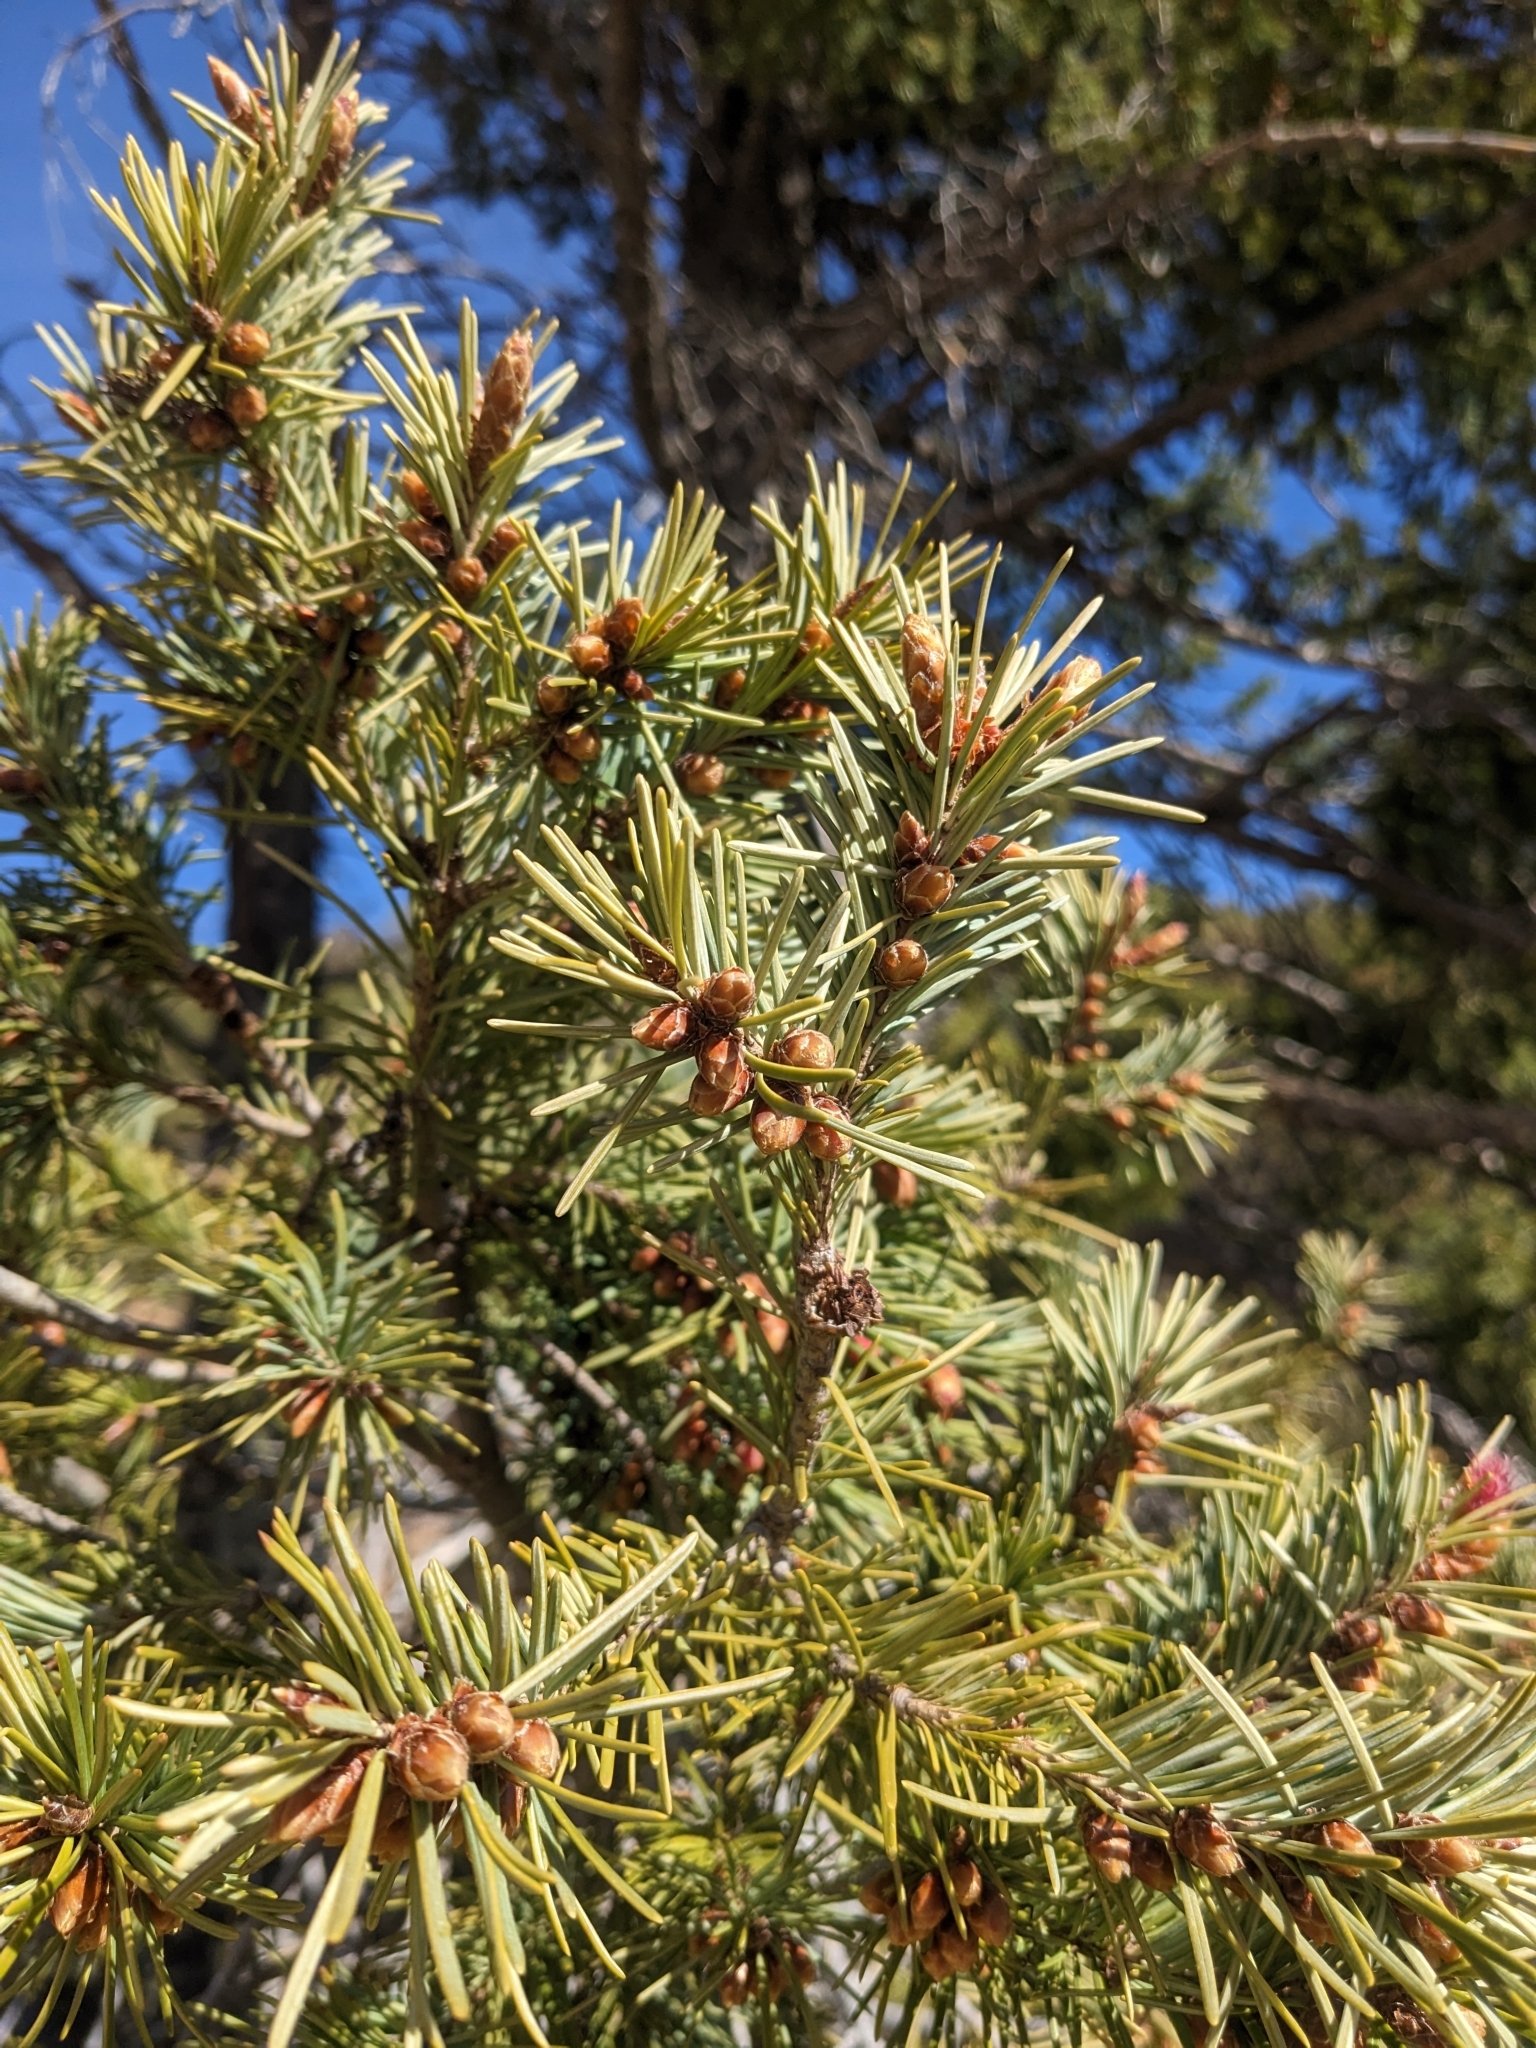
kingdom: Plantae
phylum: Tracheophyta
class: Pinopsida
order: Pinales
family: Pinaceae
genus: Pseudotsuga
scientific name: Pseudotsuga menziesii
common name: Douglas fir
